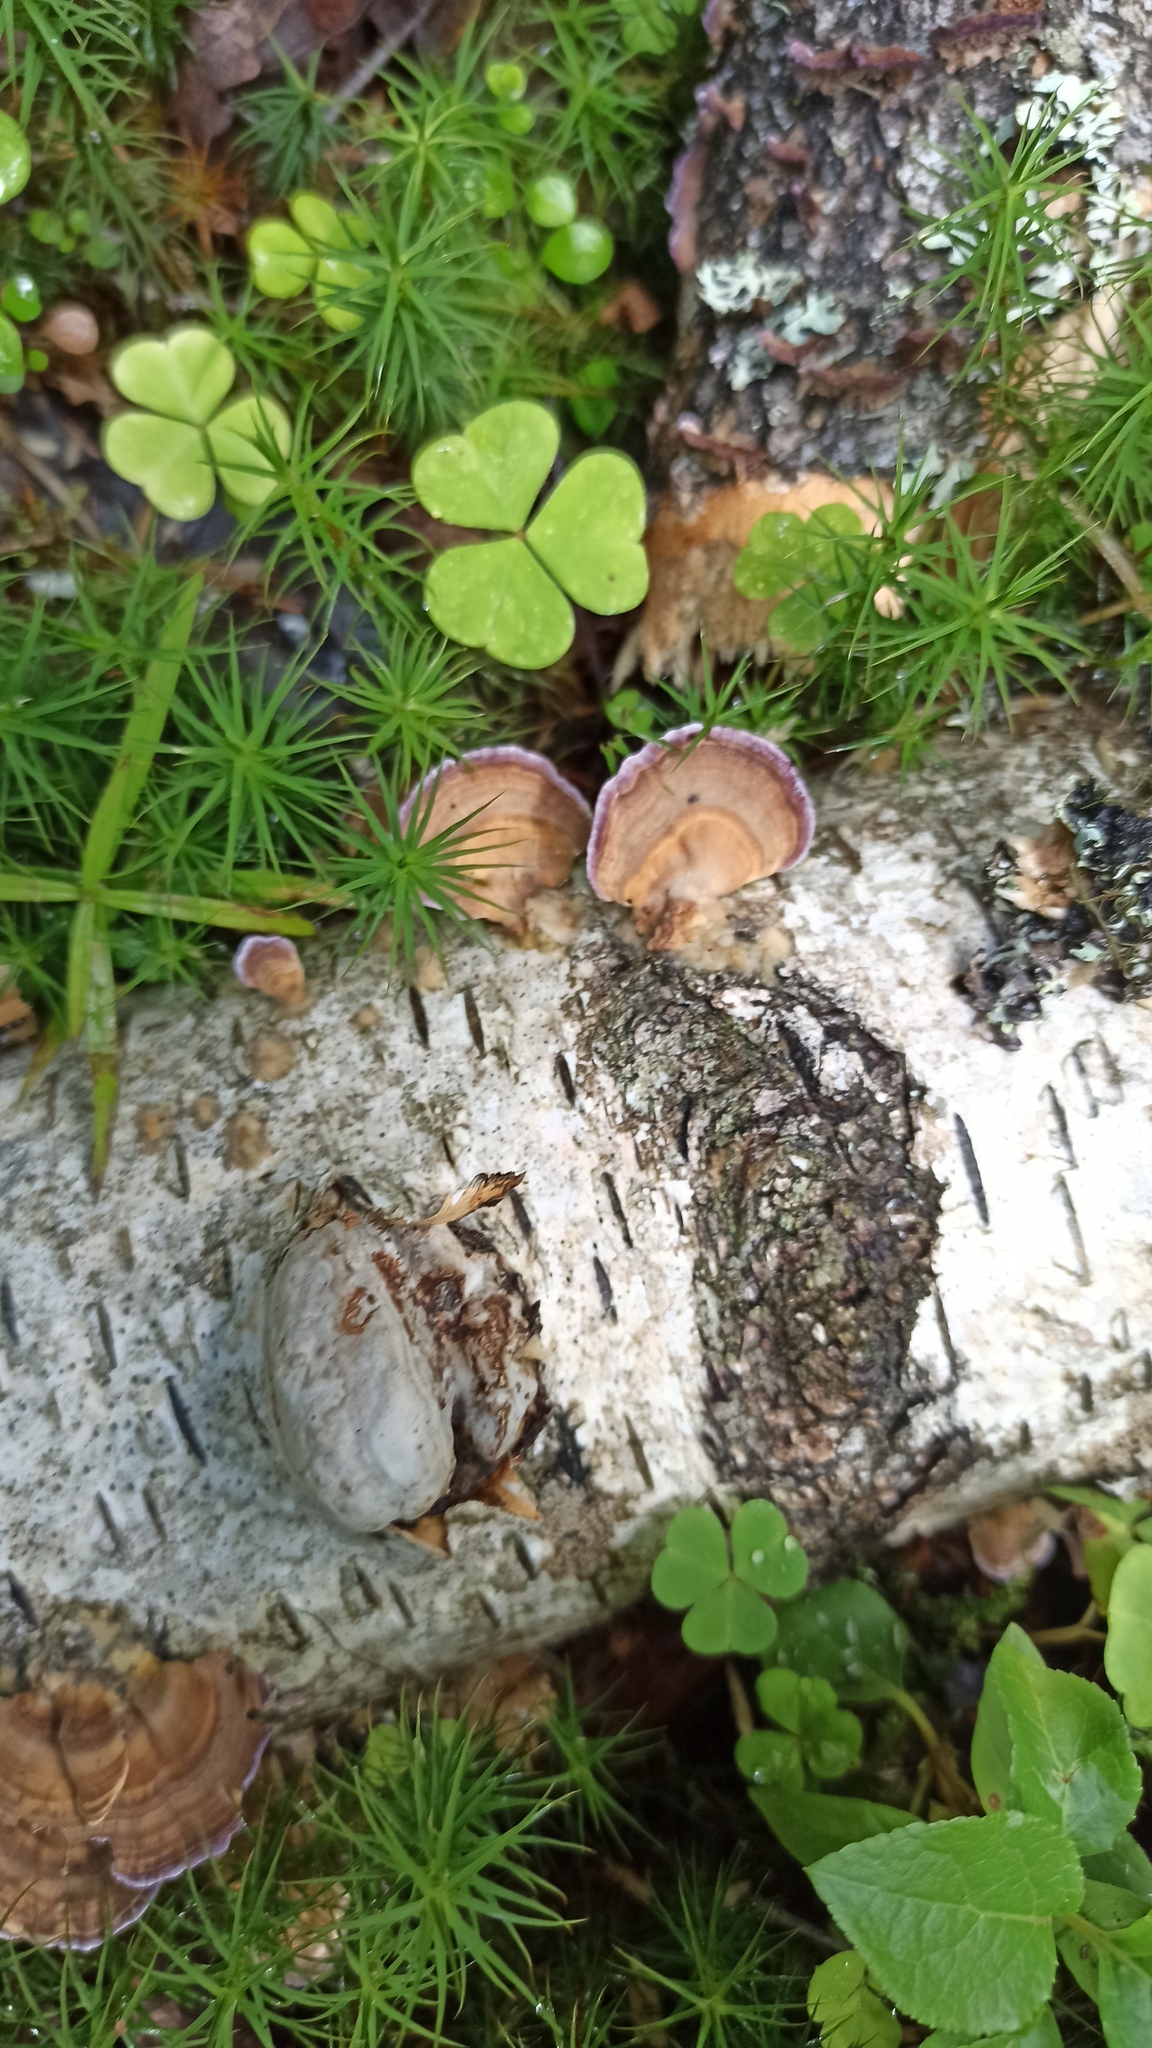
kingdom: Fungi
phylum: Basidiomycota
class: Agaricomycetes
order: Hymenochaetales
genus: Trichaptum
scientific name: Trichaptum biforme
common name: Violet-toothed polypore
